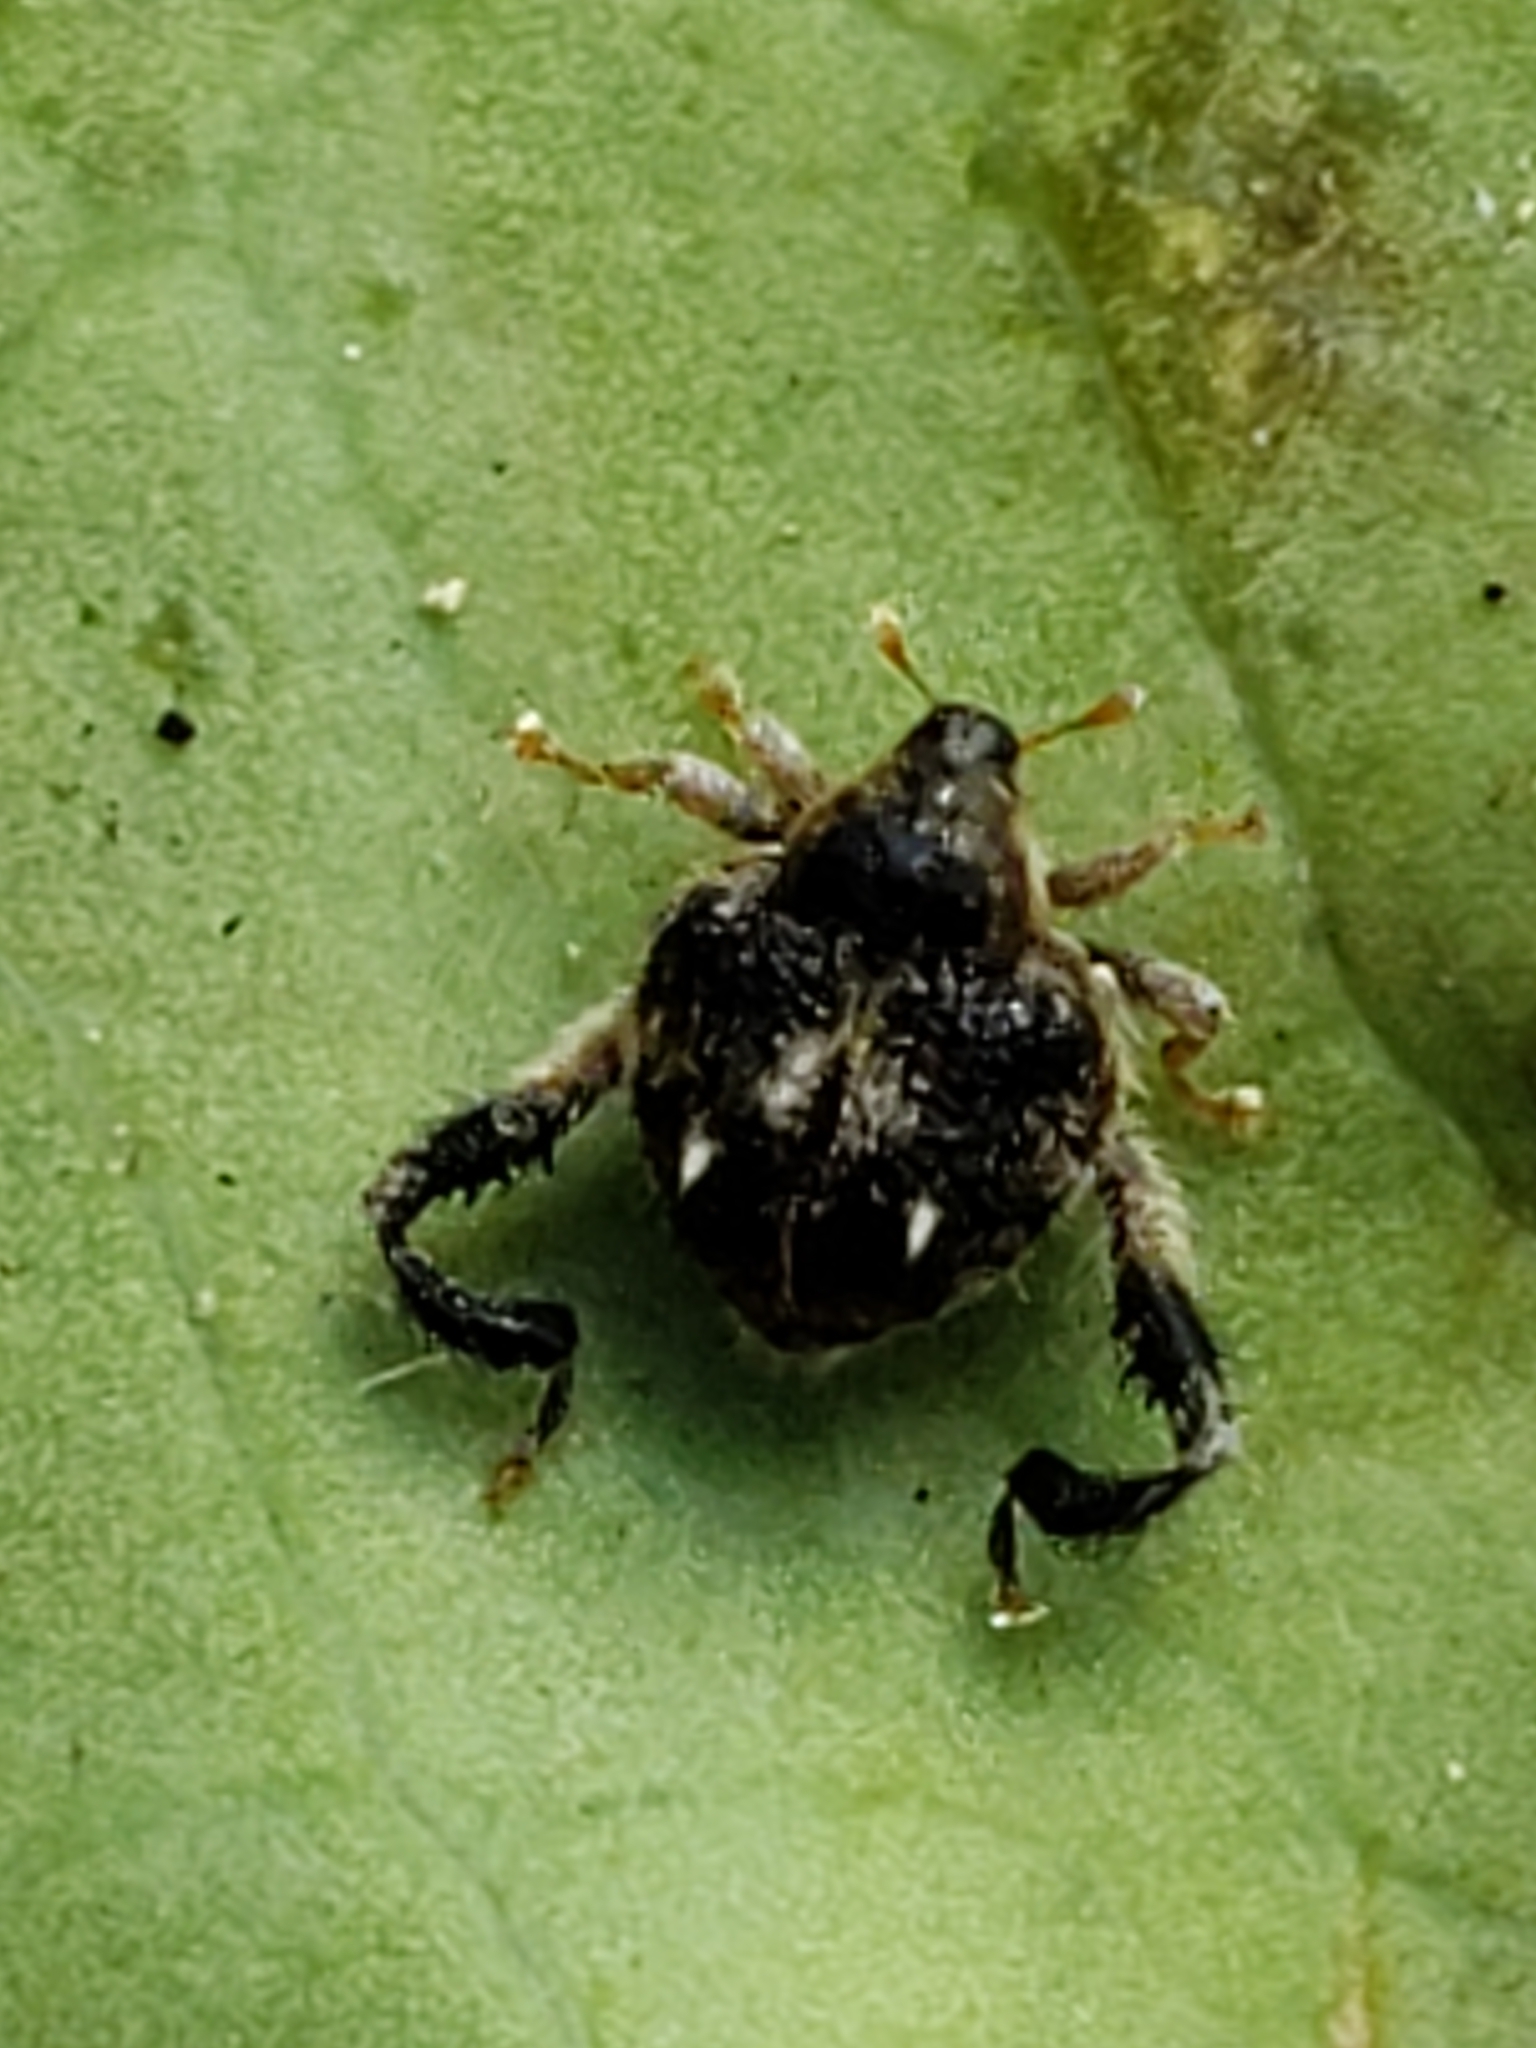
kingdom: Animalia
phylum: Arthropoda
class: Insecta
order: Coleoptera
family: Curculionidae
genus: Tachygonus
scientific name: Tachygonus lecontei
